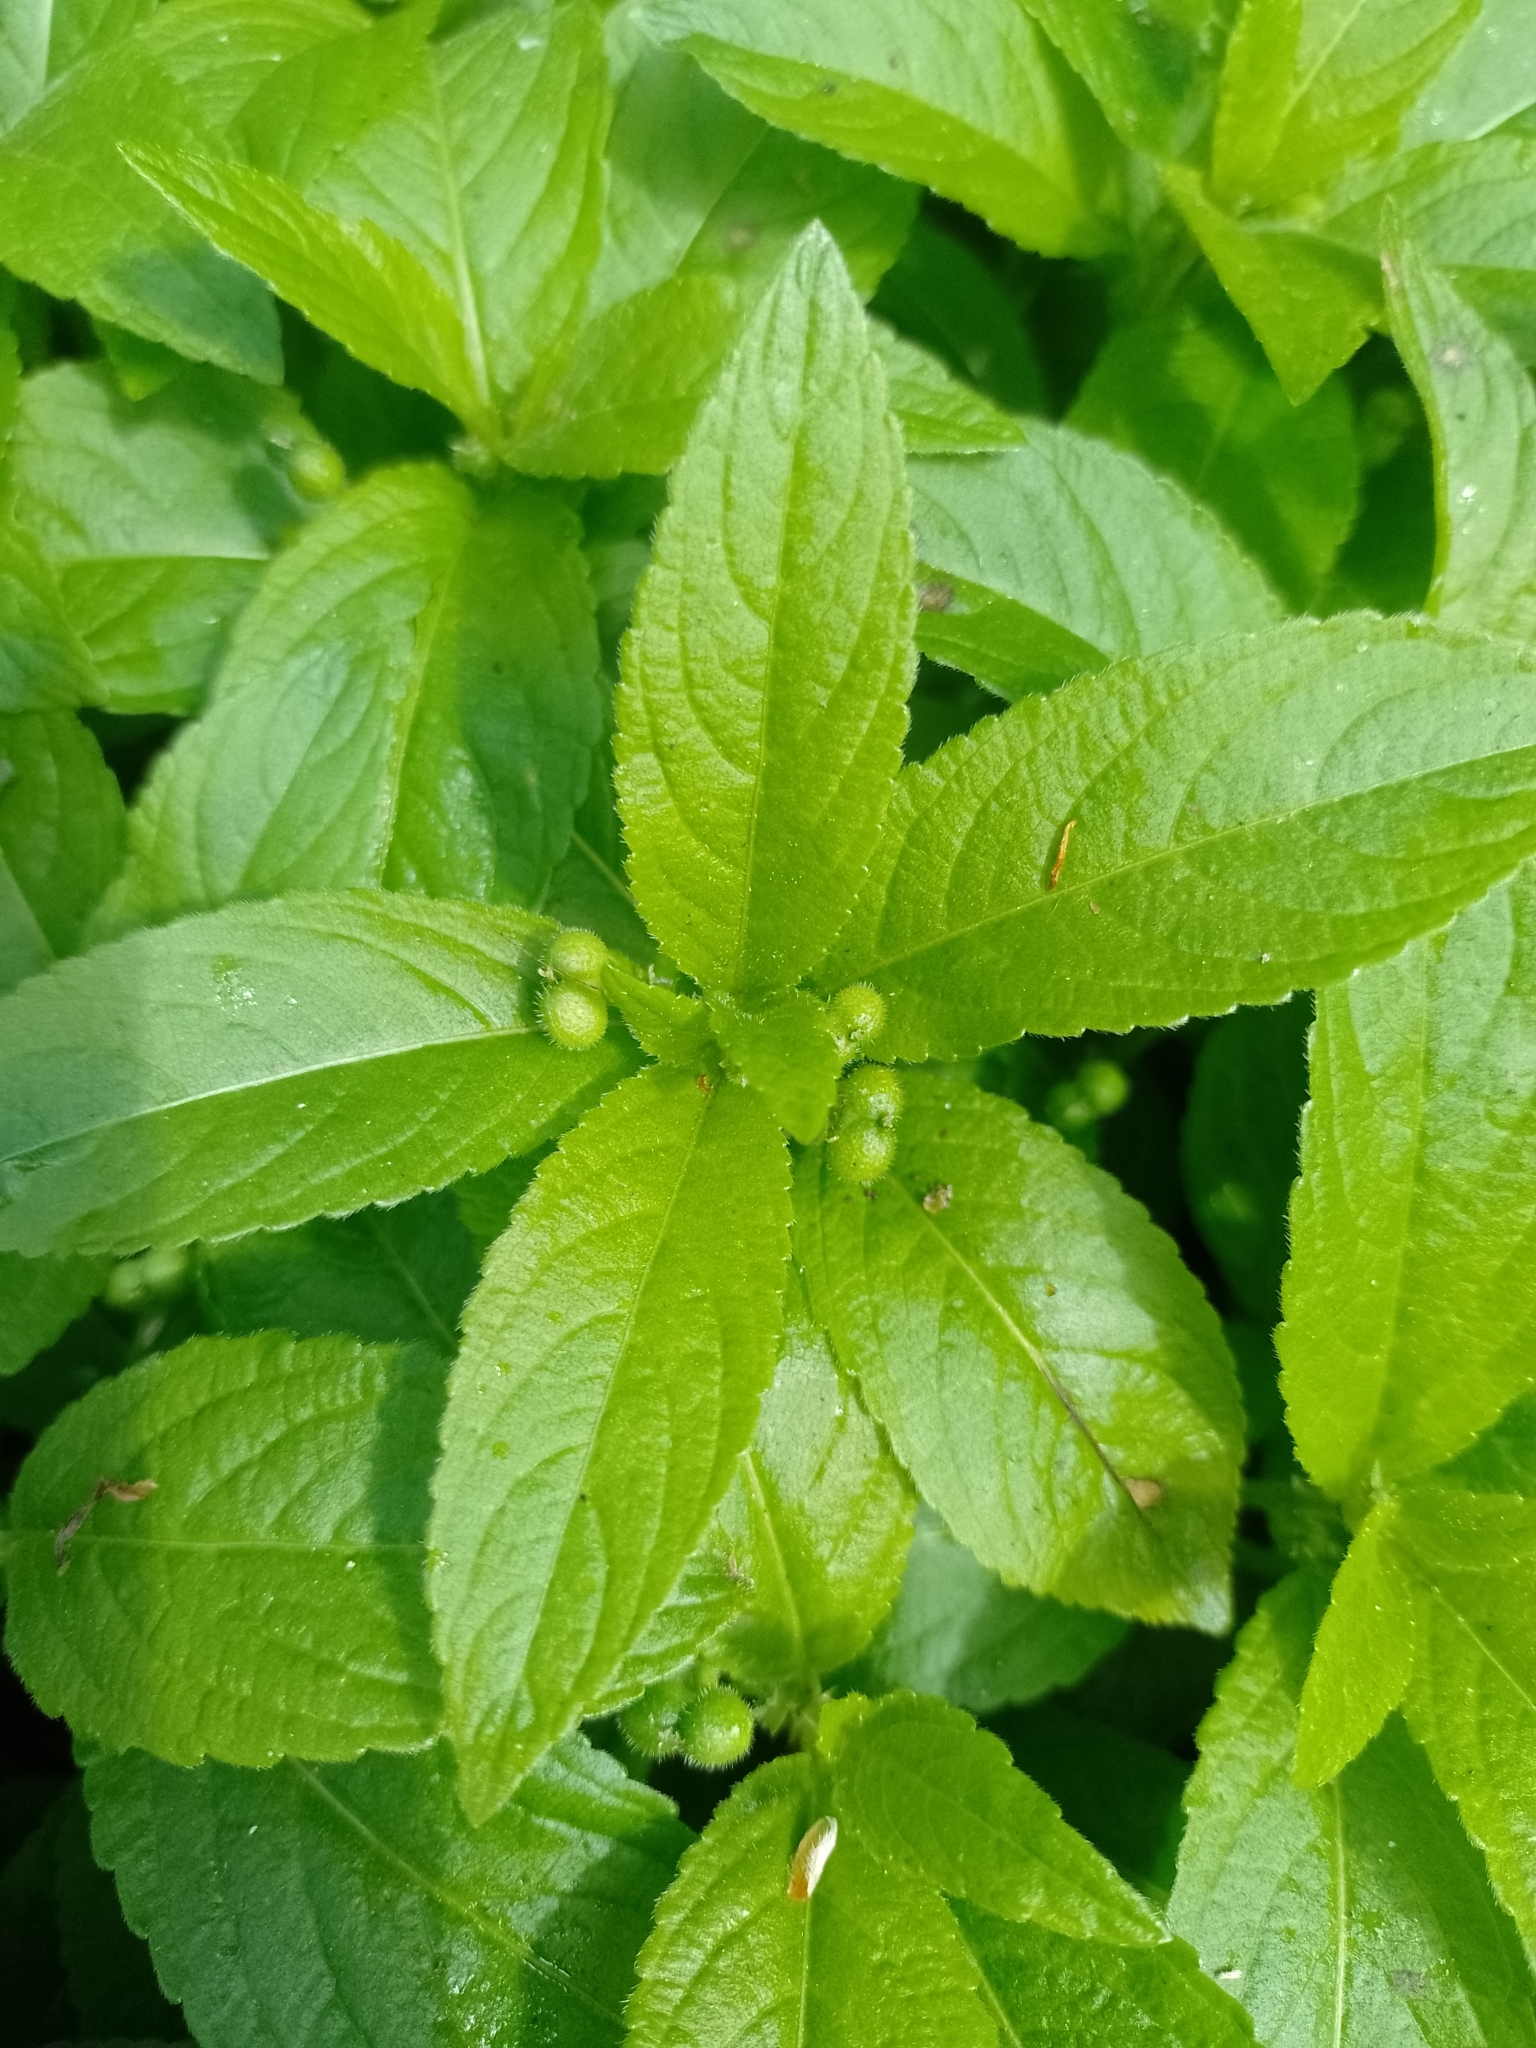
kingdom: Plantae
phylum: Tracheophyta
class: Magnoliopsida
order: Malpighiales
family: Euphorbiaceae
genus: Mercurialis
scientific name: Mercurialis perennis
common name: Dog mercury
